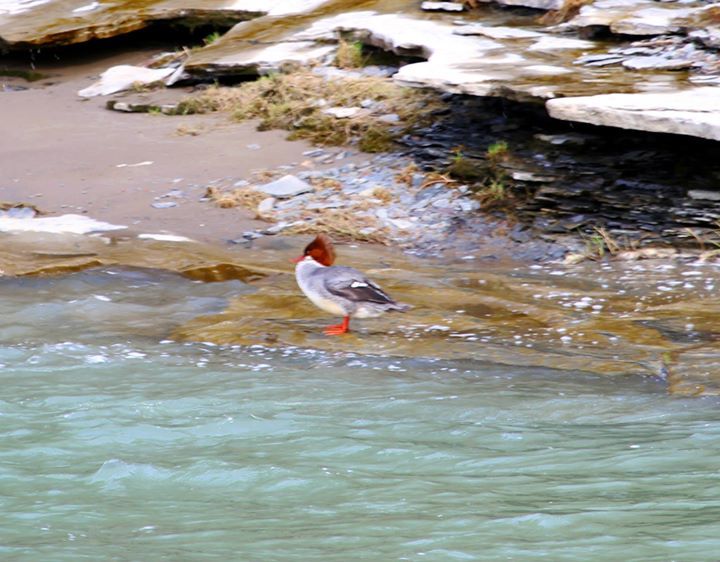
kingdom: Animalia
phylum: Chordata
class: Aves
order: Anseriformes
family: Anatidae
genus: Mergus
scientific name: Mergus merganser
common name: Common merganser
